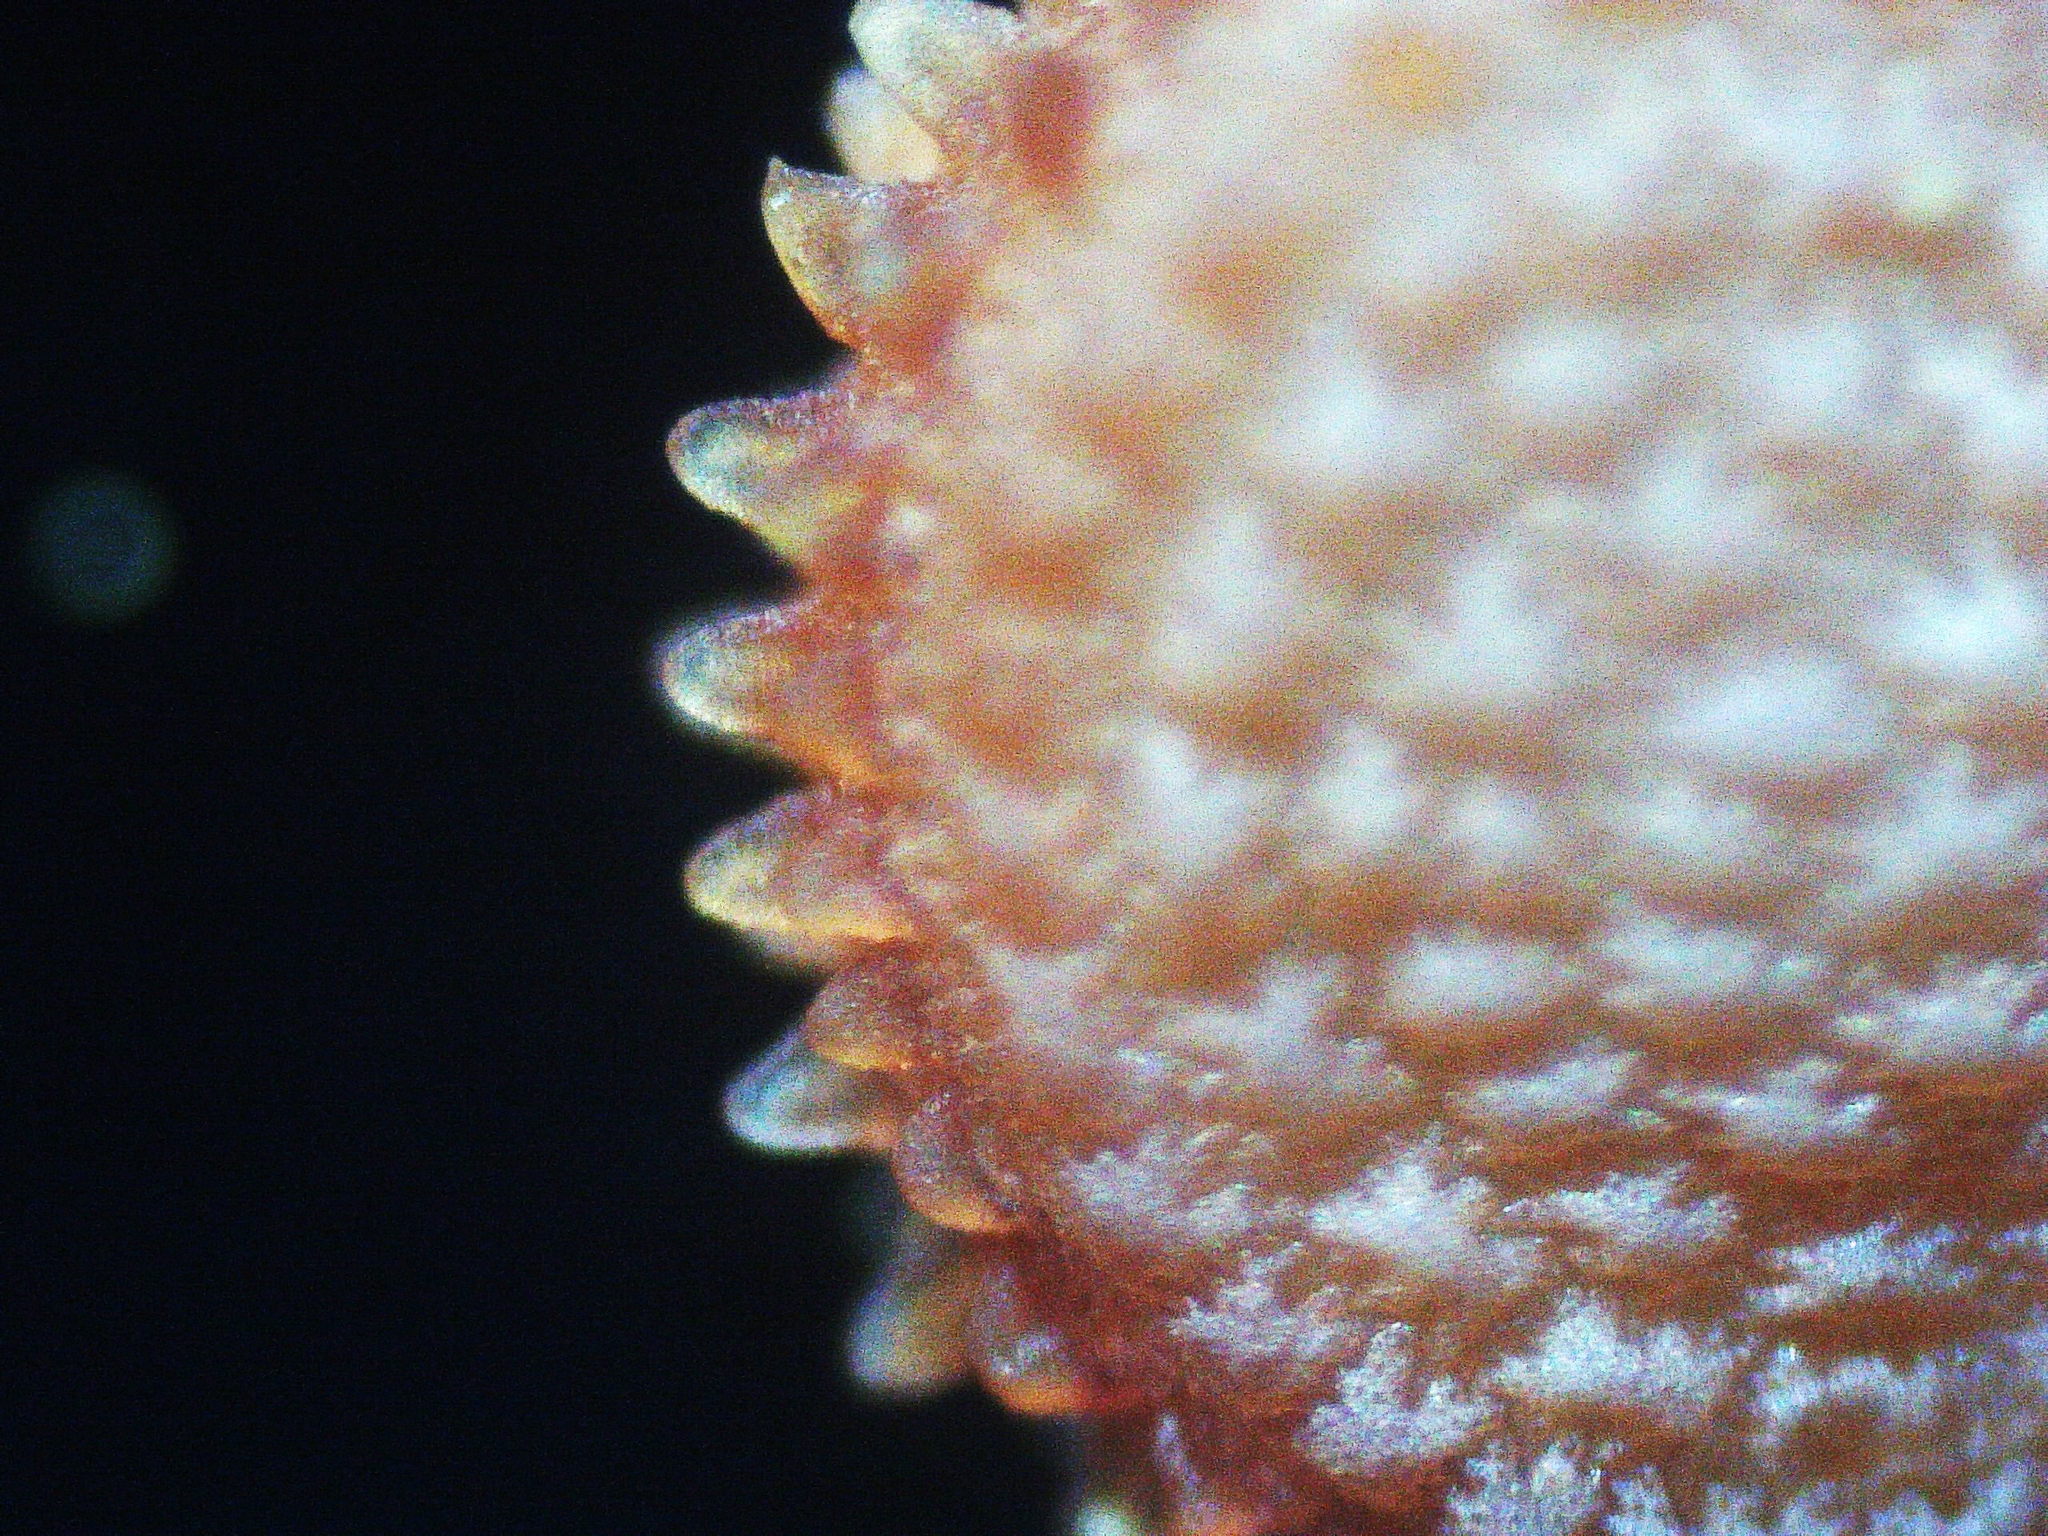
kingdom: Plantae
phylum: Tracheophyta
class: Magnoliopsida
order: Caryophyllales
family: Caryophyllaceae
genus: Stellaria
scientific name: Stellaria ruderalis
